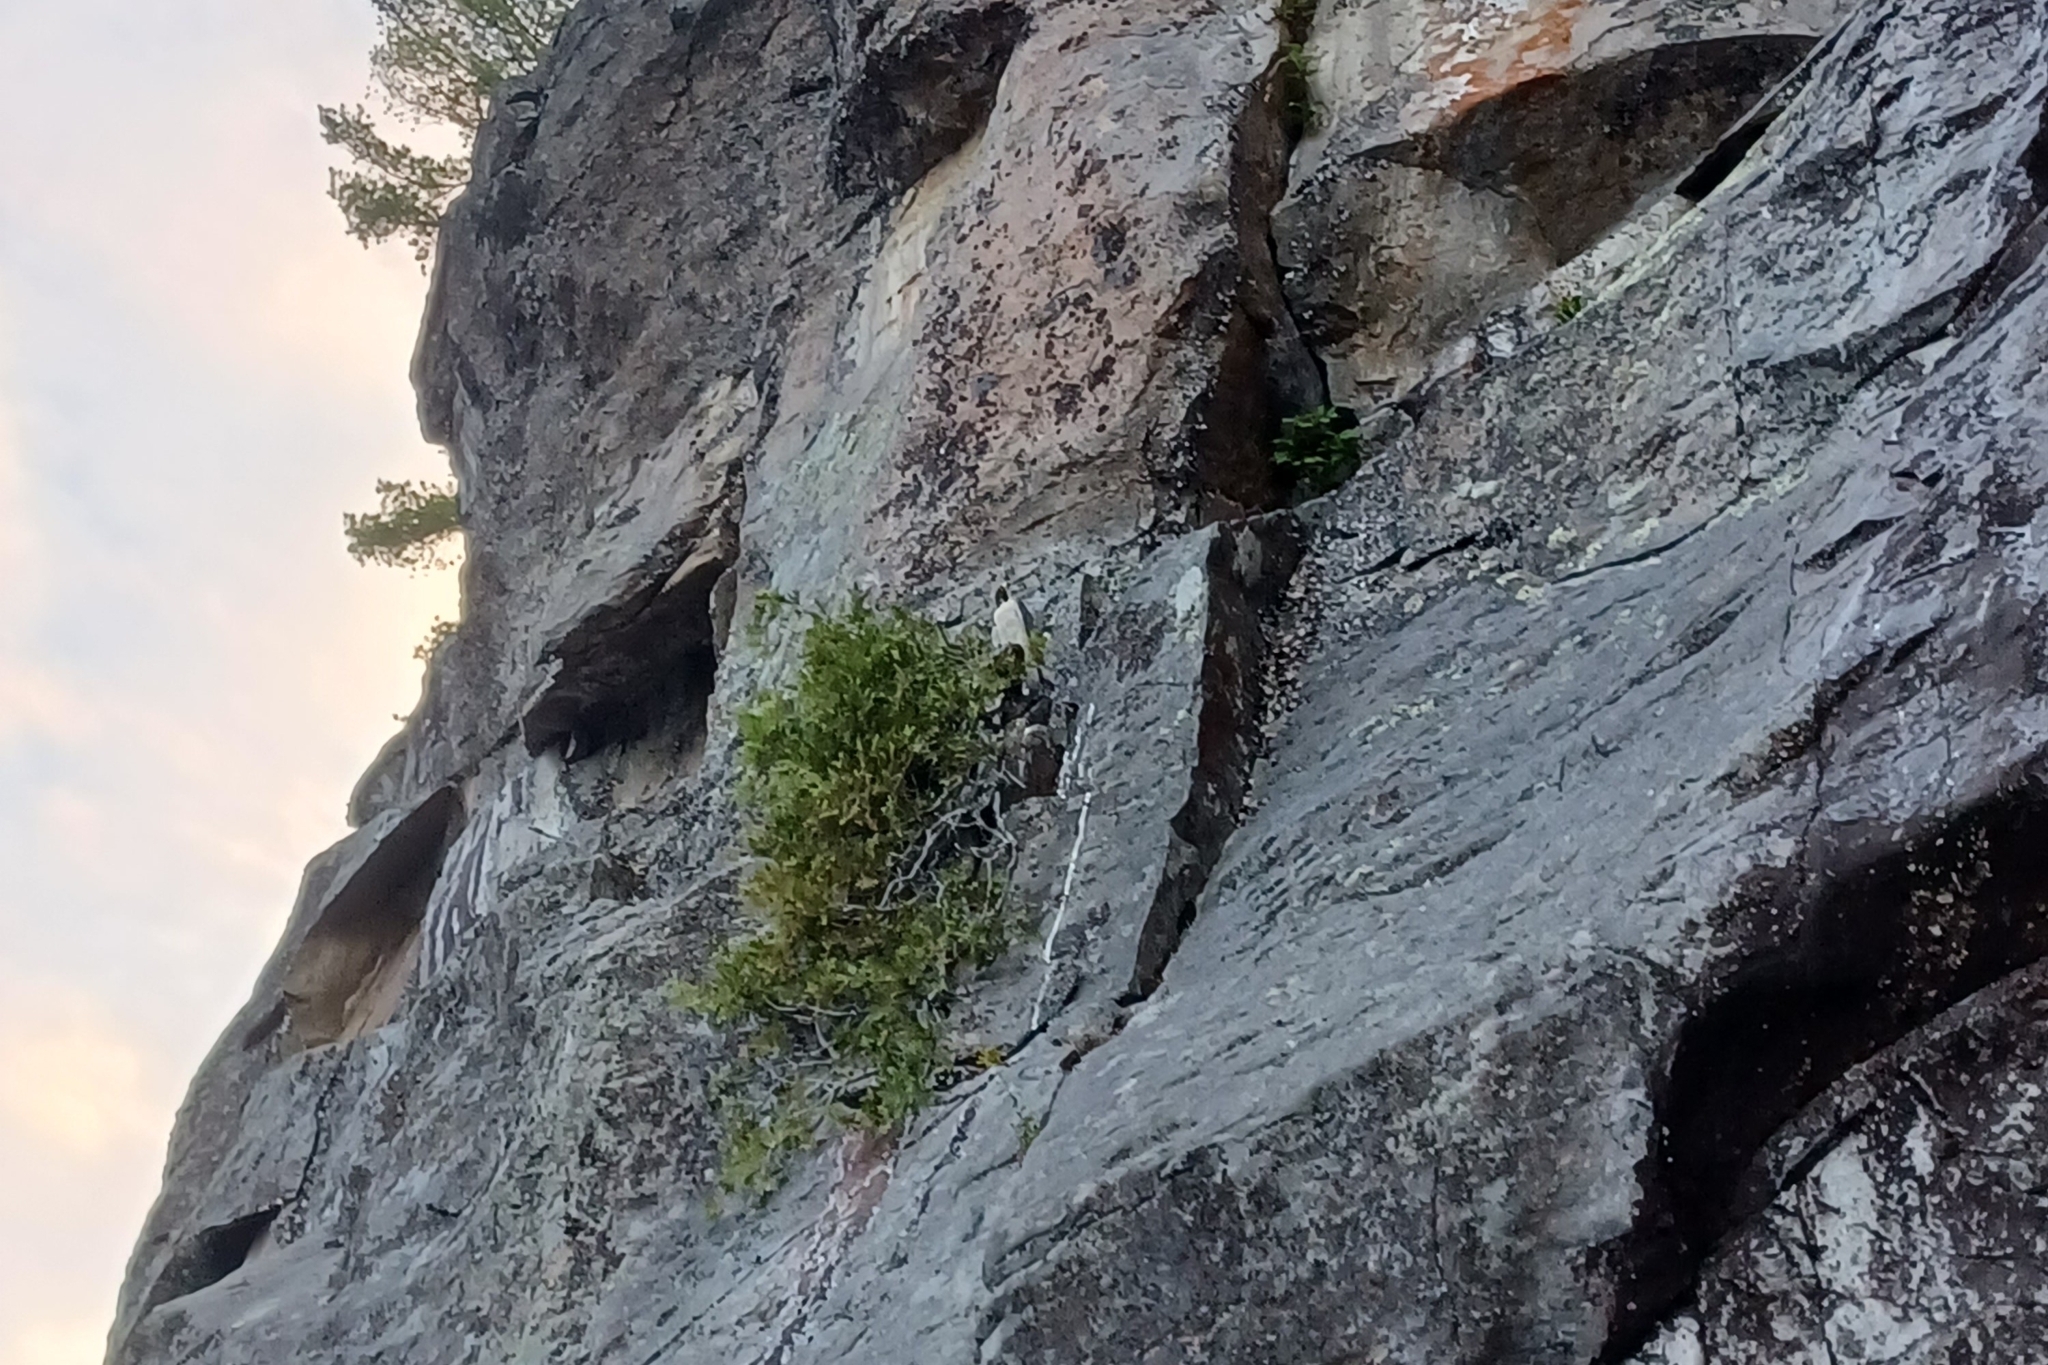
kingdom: Animalia
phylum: Chordata
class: Aves
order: Falconiformes
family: Falconidae
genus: Falco
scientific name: Falco peregrinus
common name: Peregrine falcon
